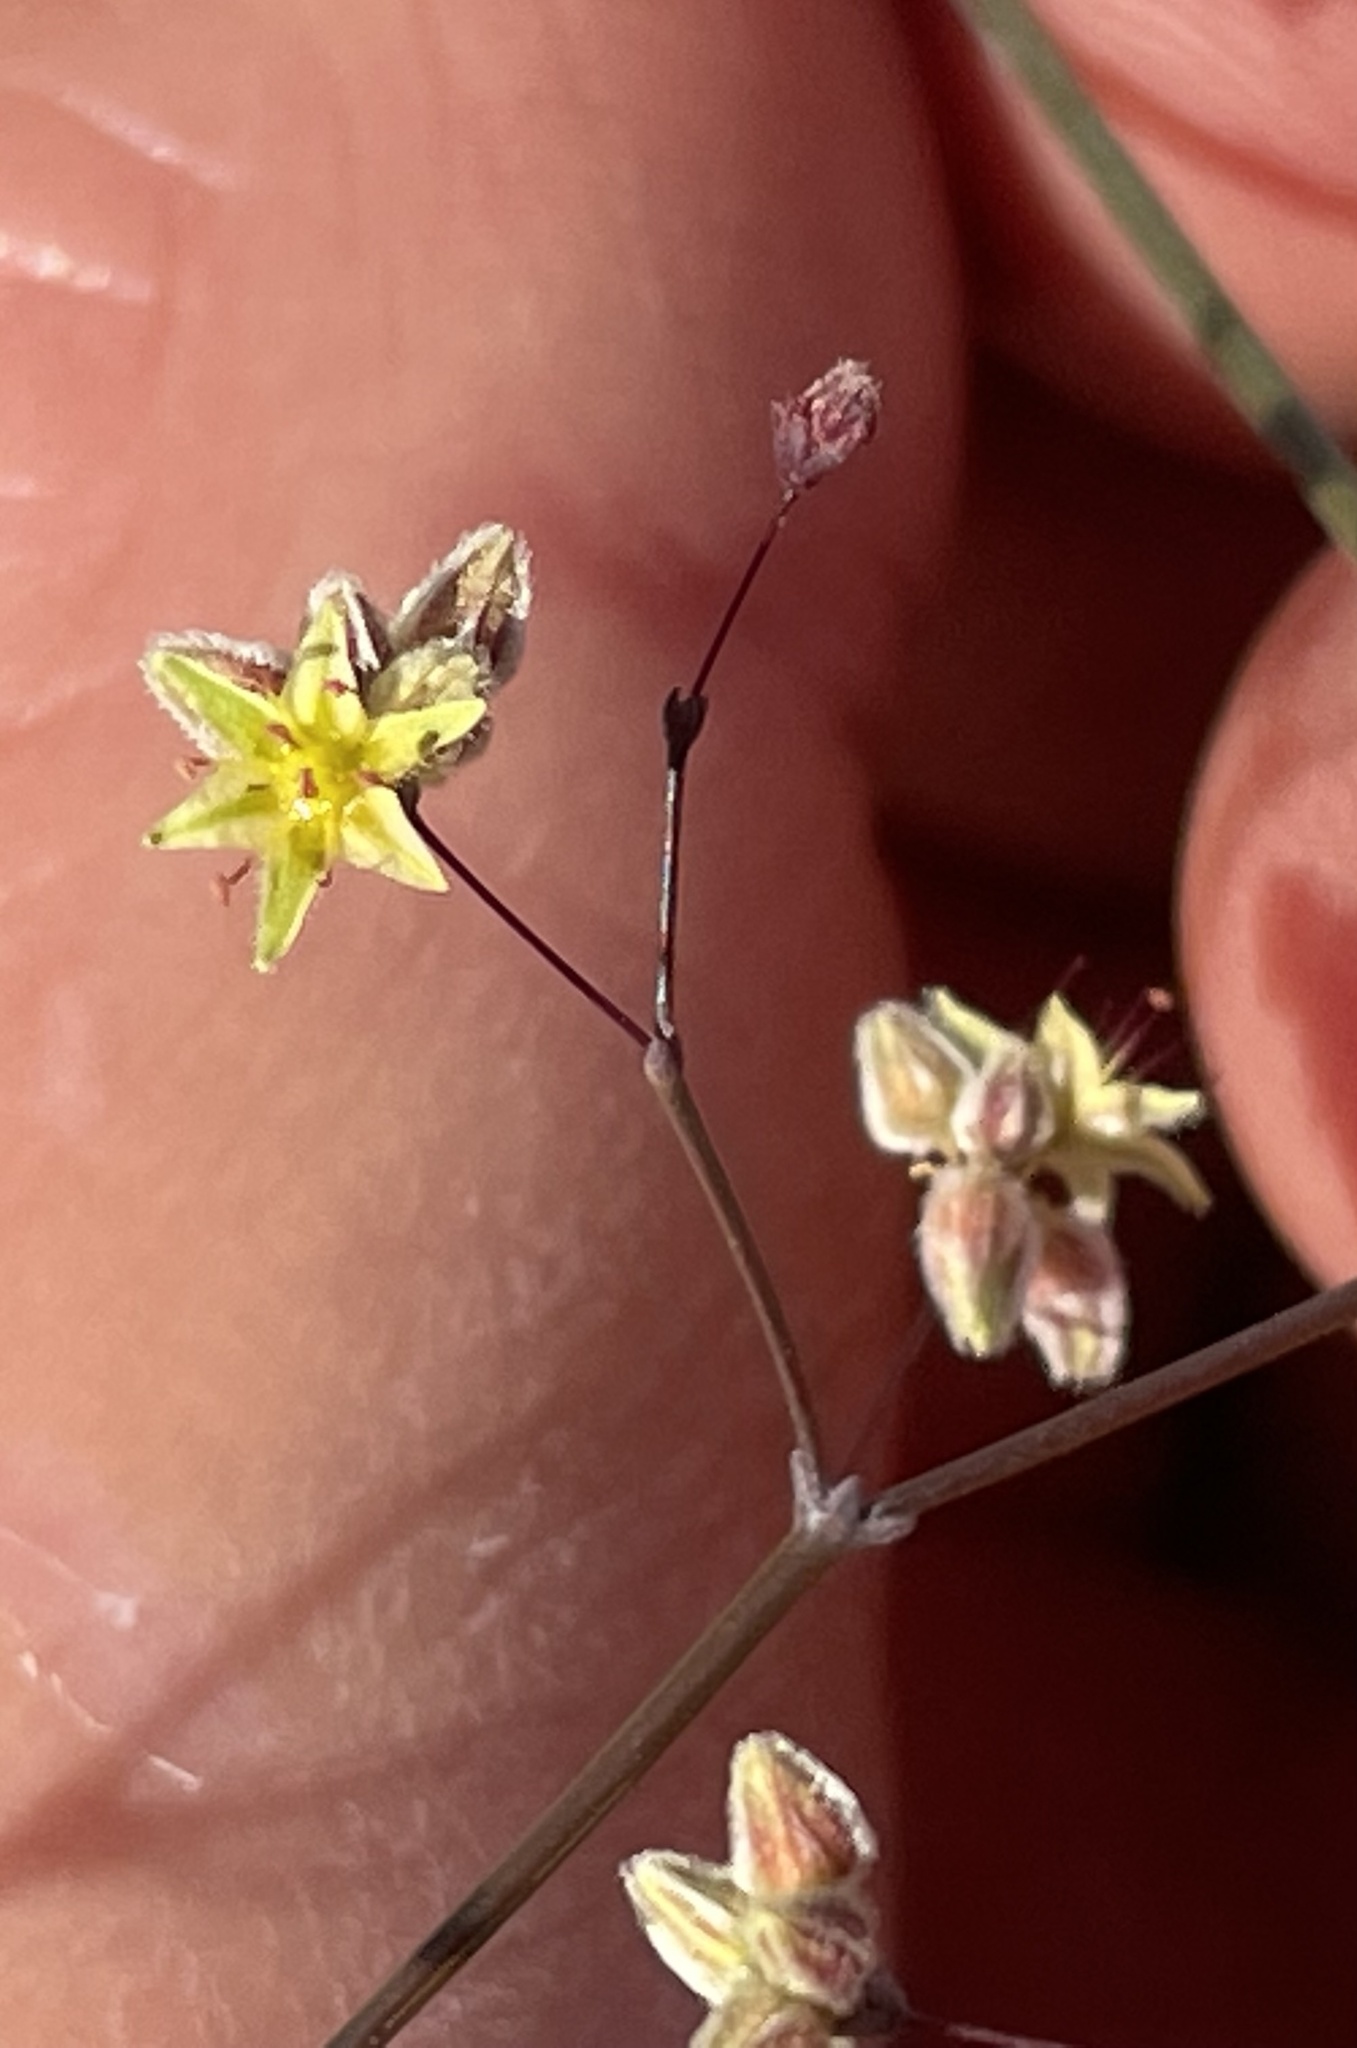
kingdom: Plantae
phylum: Tracheophyta
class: Magnoliopsida
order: Caryophyllales
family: Polygonaceae
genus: Eriogonum
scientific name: Eriogonum inflatum
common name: Desert trumpet
